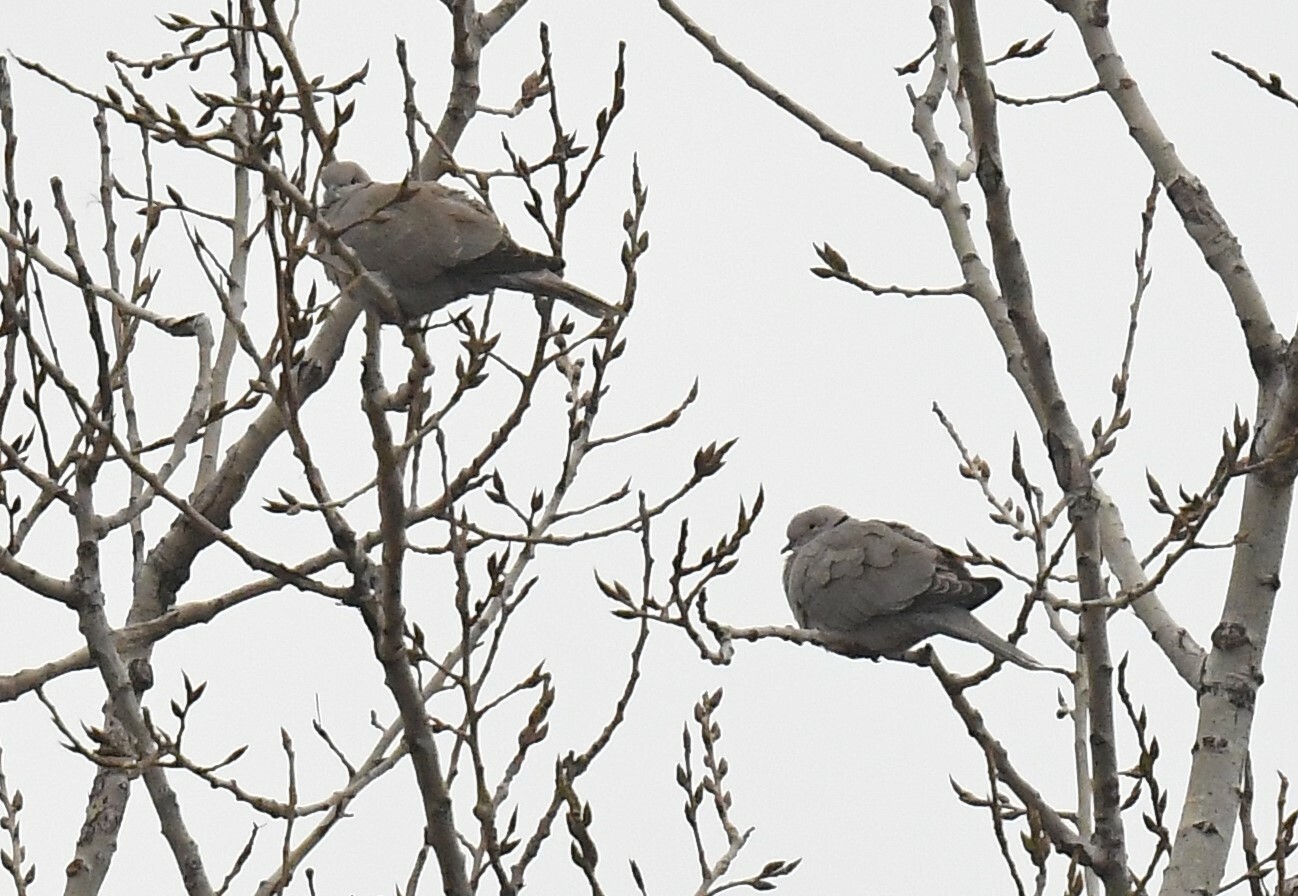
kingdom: Animalia
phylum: Chordata
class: Aves
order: Columbiformes
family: Columbidae
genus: Streptopelia
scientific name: Streptopelia decaocto
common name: Eurasian collared dove
